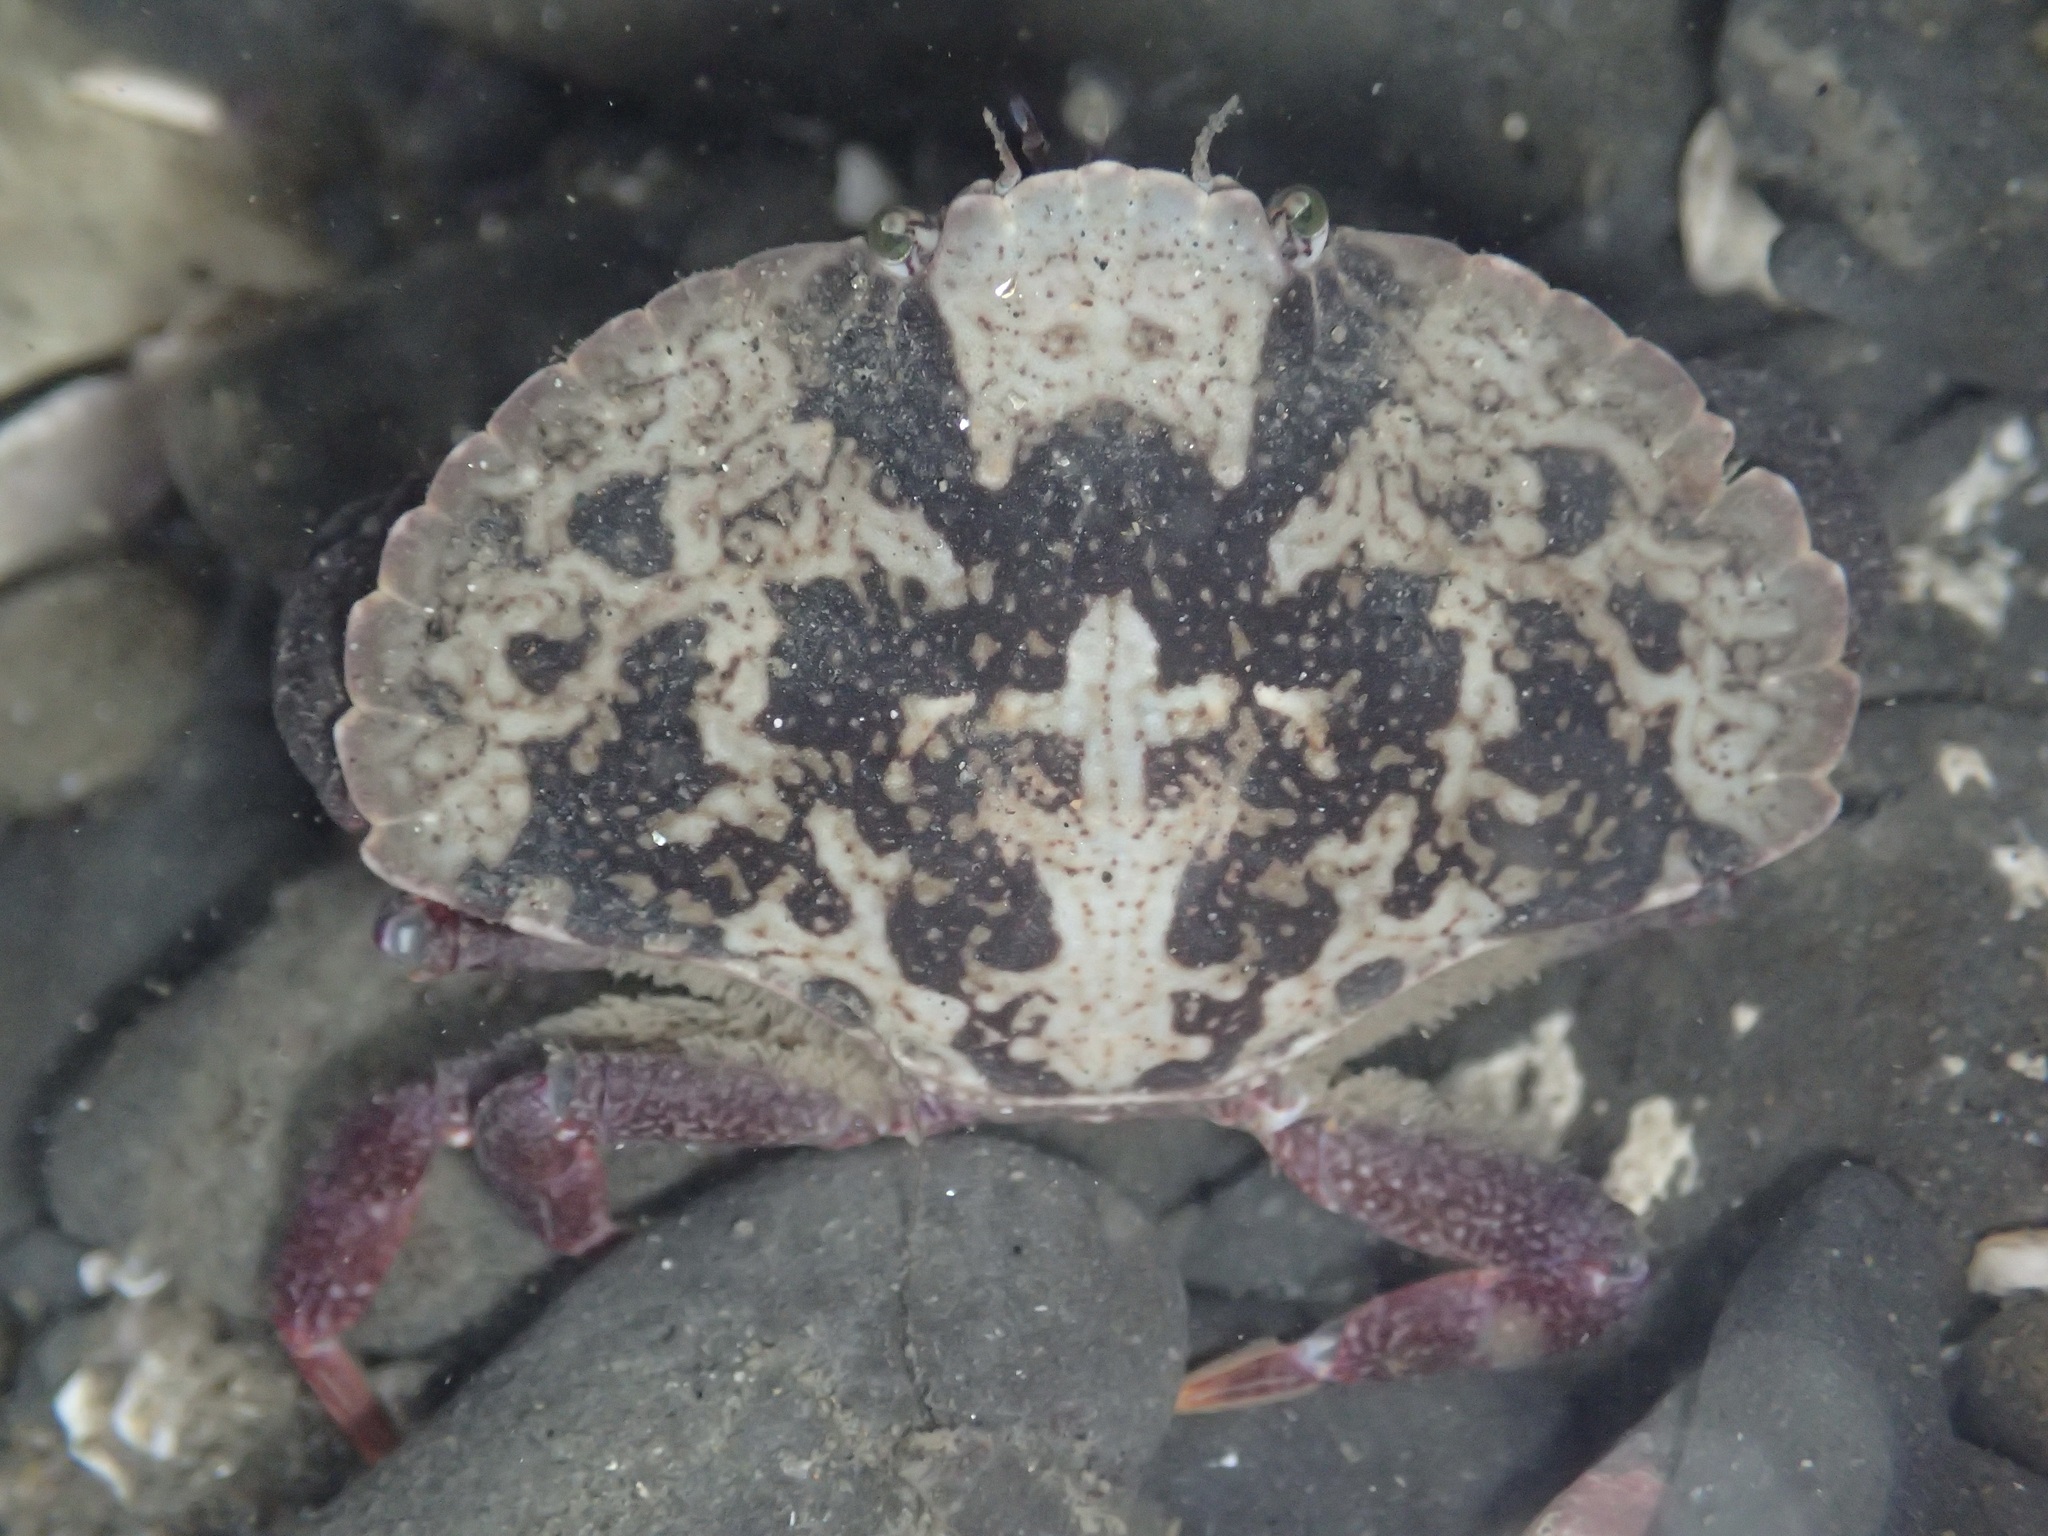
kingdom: Animalia
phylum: Arthropoda
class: Malacostraca
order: Decapoda
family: Cancridae
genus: Cancer
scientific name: Cancer productus
